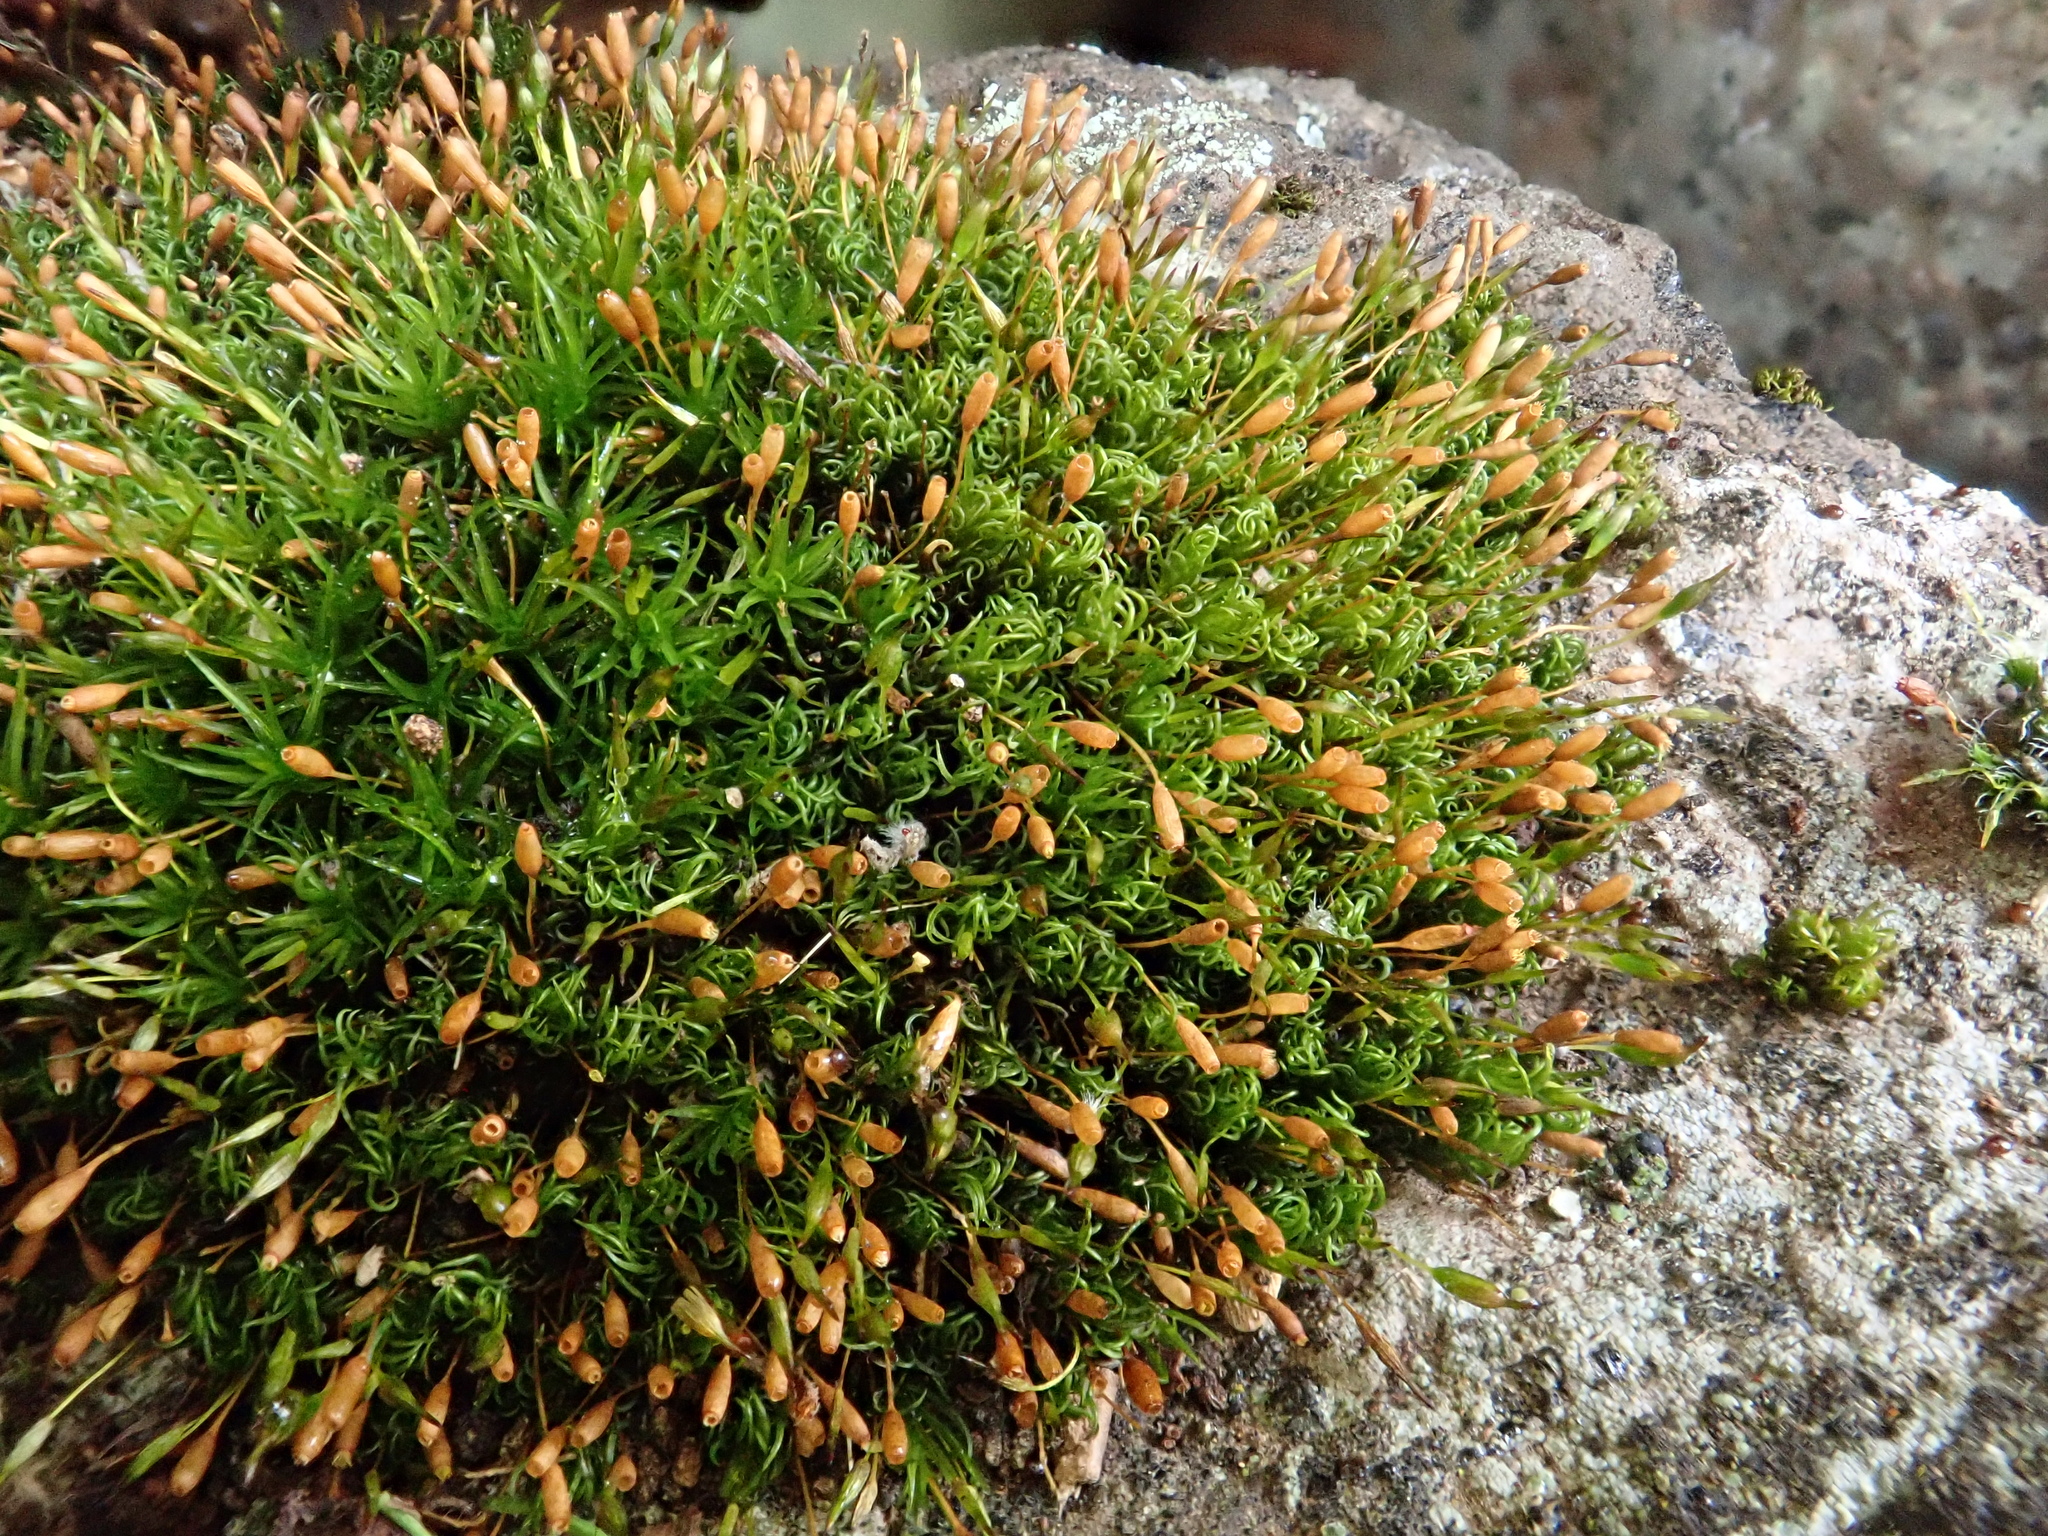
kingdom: Plantae
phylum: Bryophyta
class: Bryopsida
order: Grimmiales
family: Ptychomitriaceae
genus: Ptychomitrium
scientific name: Ptychomitrium nigrescens
